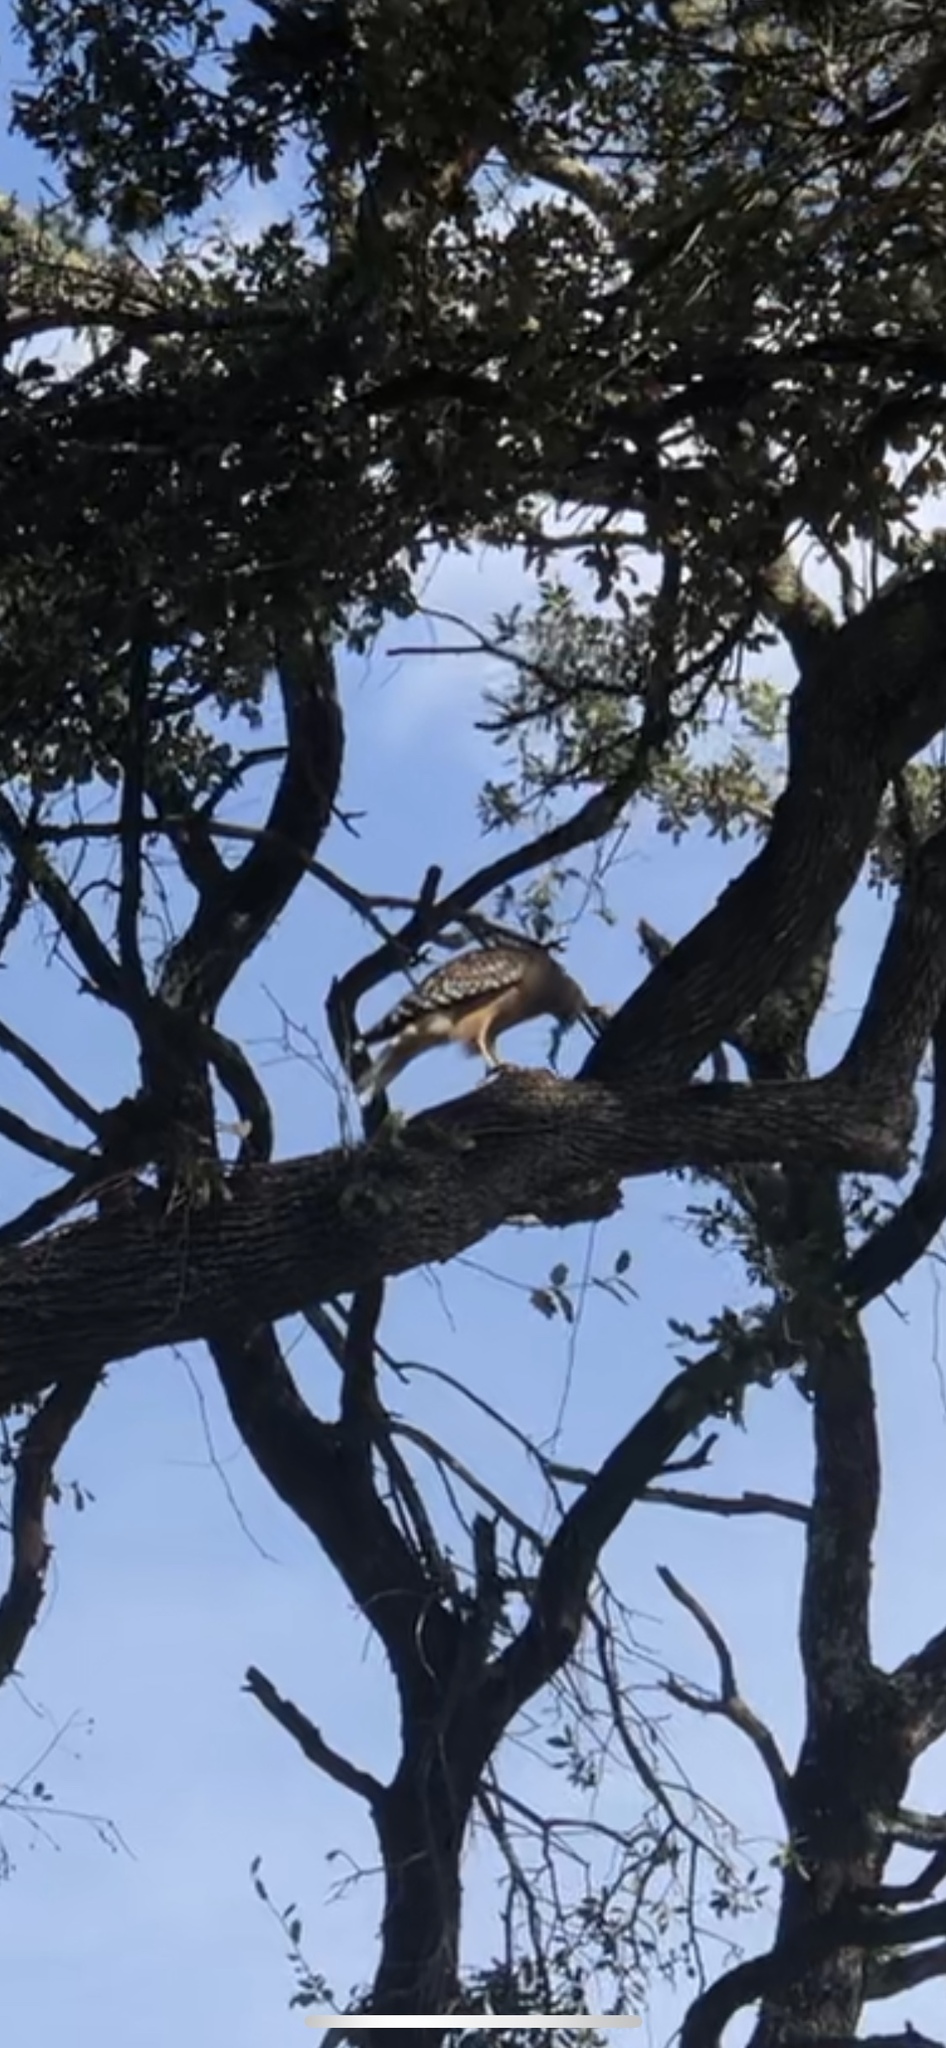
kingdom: Animalia
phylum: Chordata
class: Aves
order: Accipitriformes
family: Accipitridae
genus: Buteo
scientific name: Buteo lineatus
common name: Red-shouldered hawk
